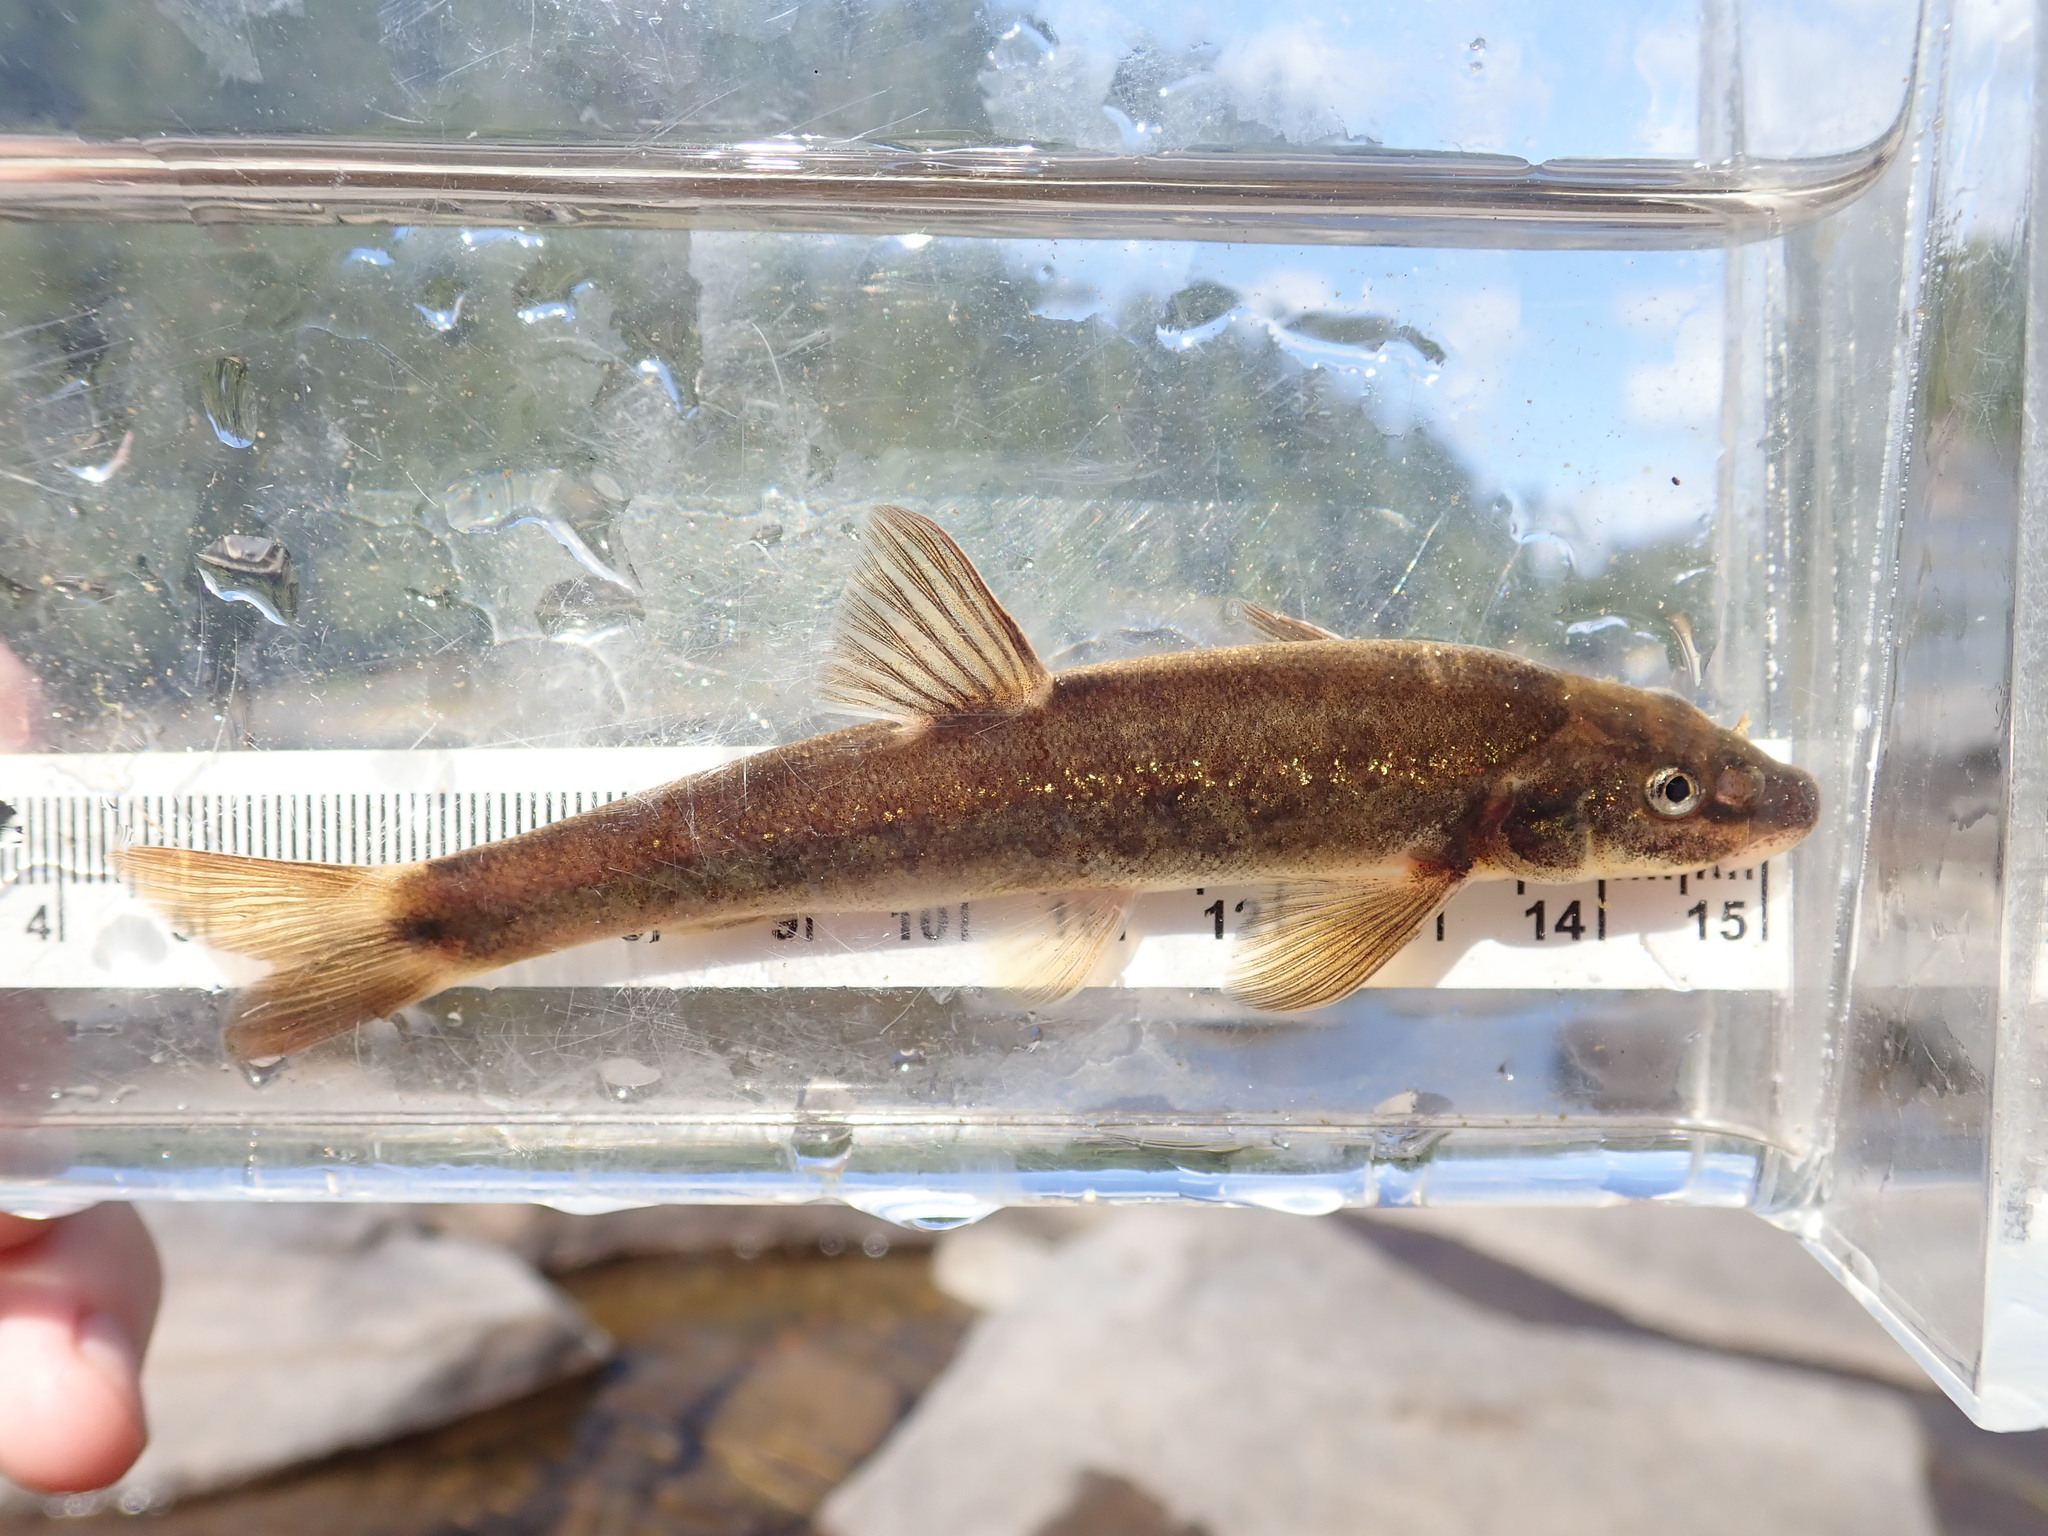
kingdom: Animalia
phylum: Chordata
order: Cypriniformes
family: Cyprinidae
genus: Rhinichthys
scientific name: Rhinichthys cataractae
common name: Longnose dace
